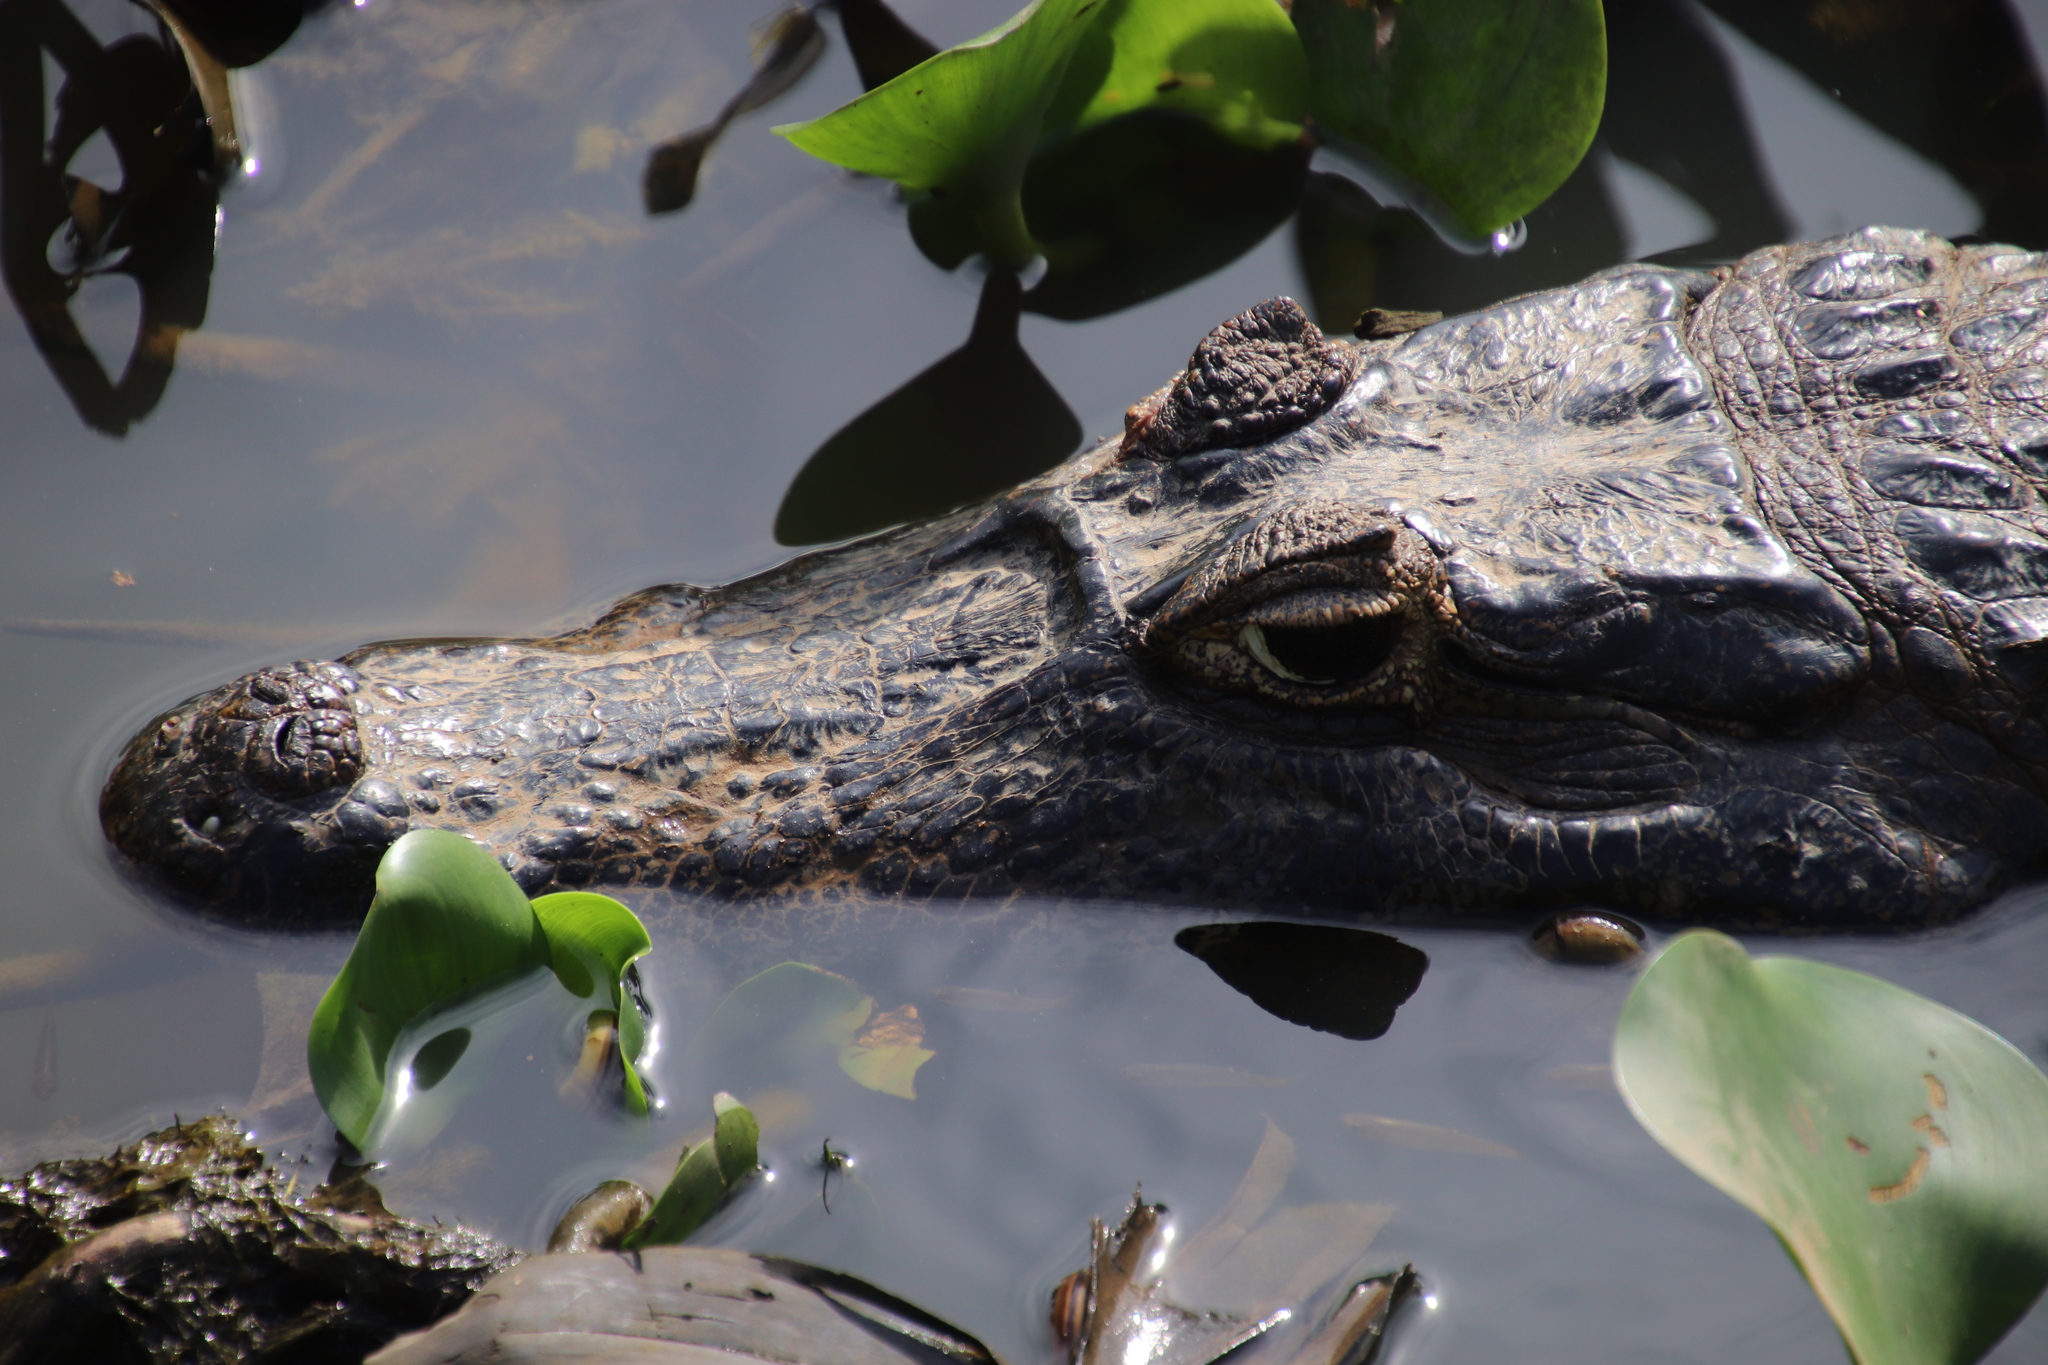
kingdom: Animalia
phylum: Chordata
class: Crocodylia
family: Alligatoridae
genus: Caiman
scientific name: Caiman yacare
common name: Yacare caiman
